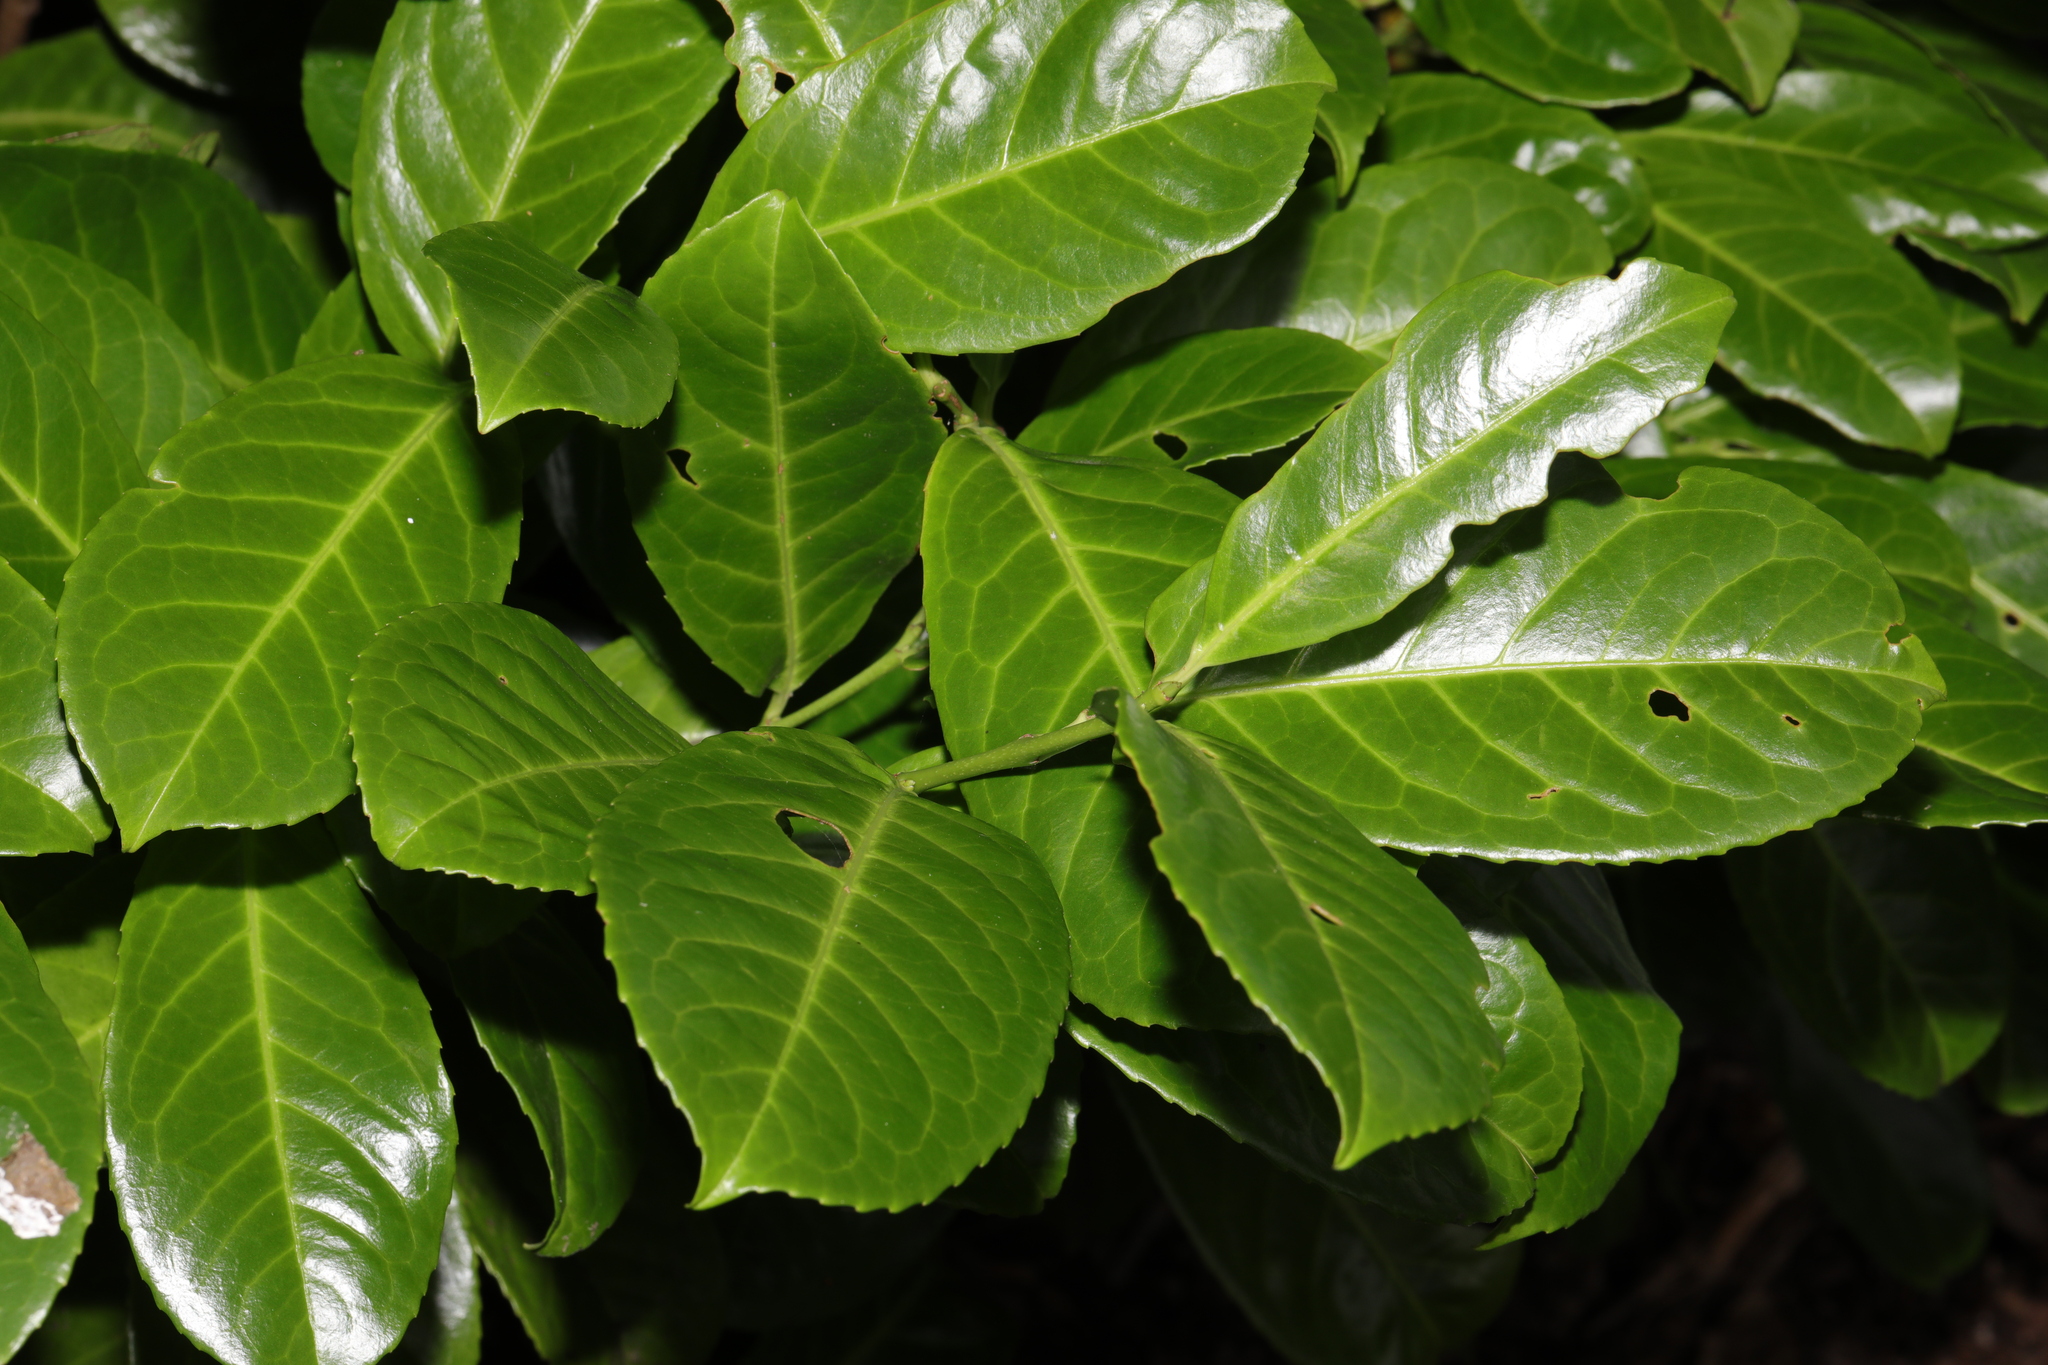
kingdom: Plantae
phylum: Tracheophyta
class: Magnoliopsida
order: Rosales
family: Rosaceae
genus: Prunus
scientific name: Prunus laurocerasus
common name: Cherry laurel
